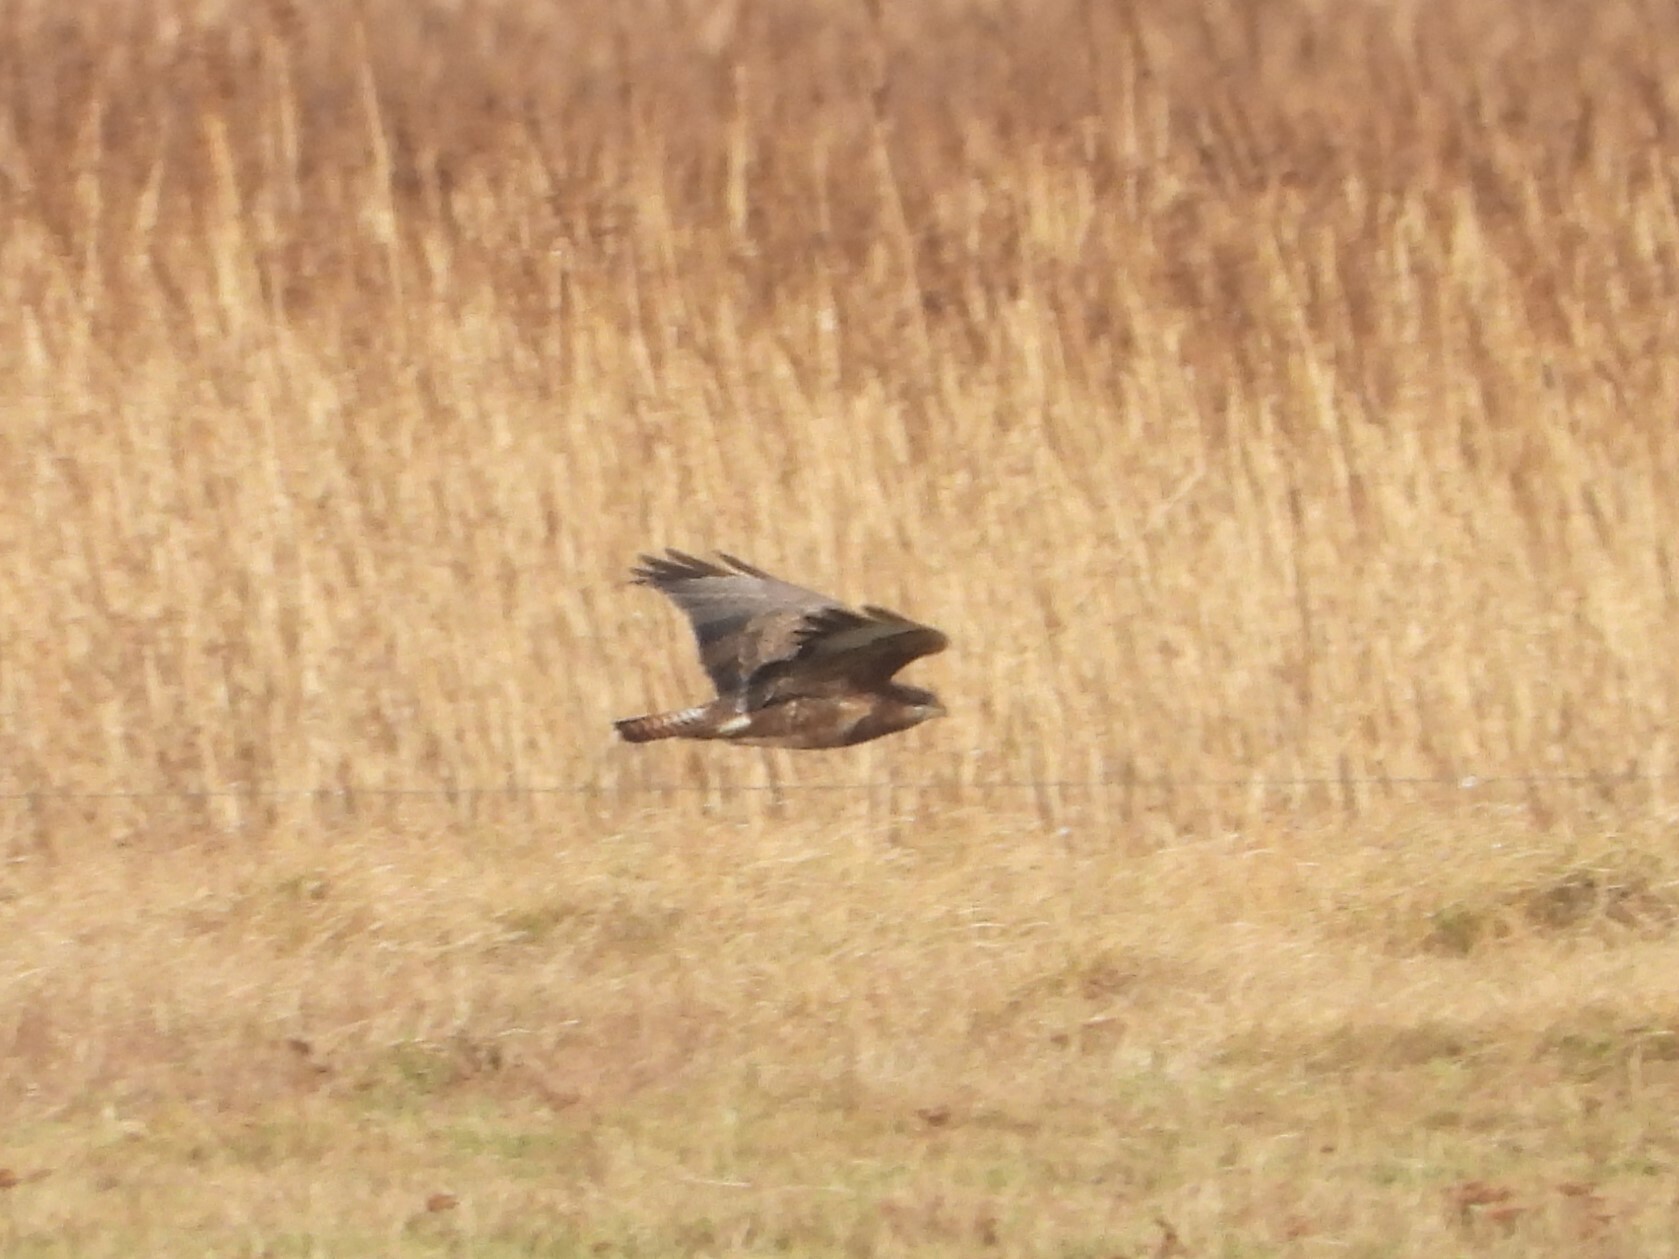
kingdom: Animalia
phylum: Chordata
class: Aves
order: Accipitriformes
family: Accipitridae
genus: Buteo
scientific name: Buteo buteo
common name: Common buzzard
